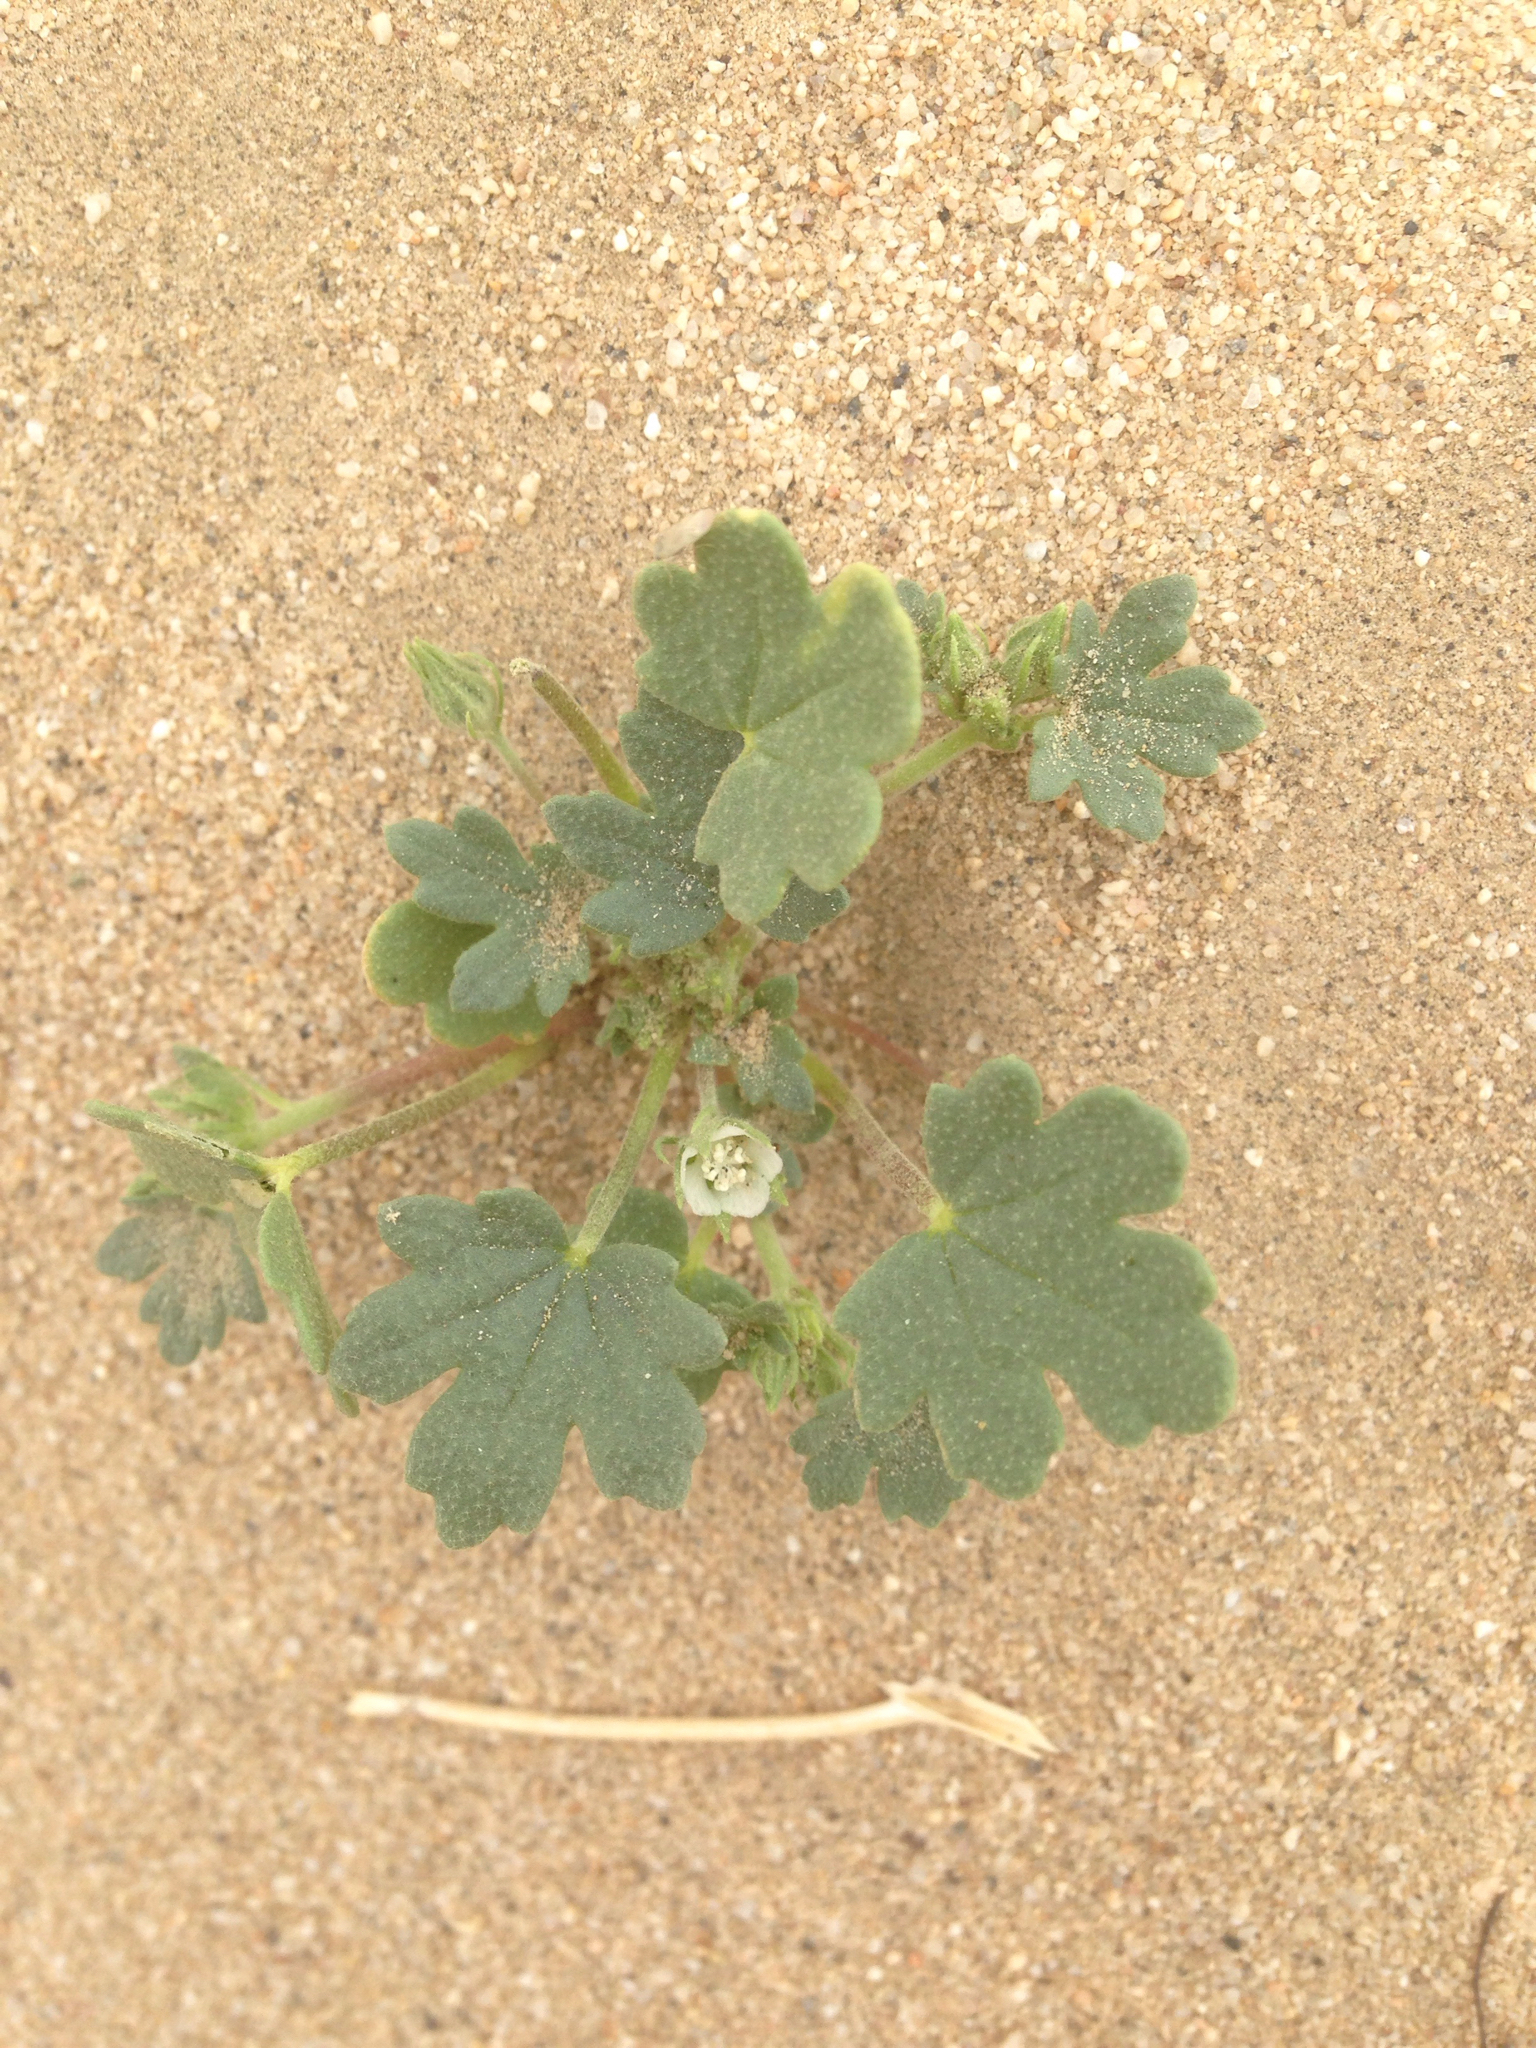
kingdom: Plantae
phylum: Tracheophyta
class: Magnoliopsida
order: Malvales
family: Malvaceae
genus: Eremalche
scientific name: Eremalche exilis
